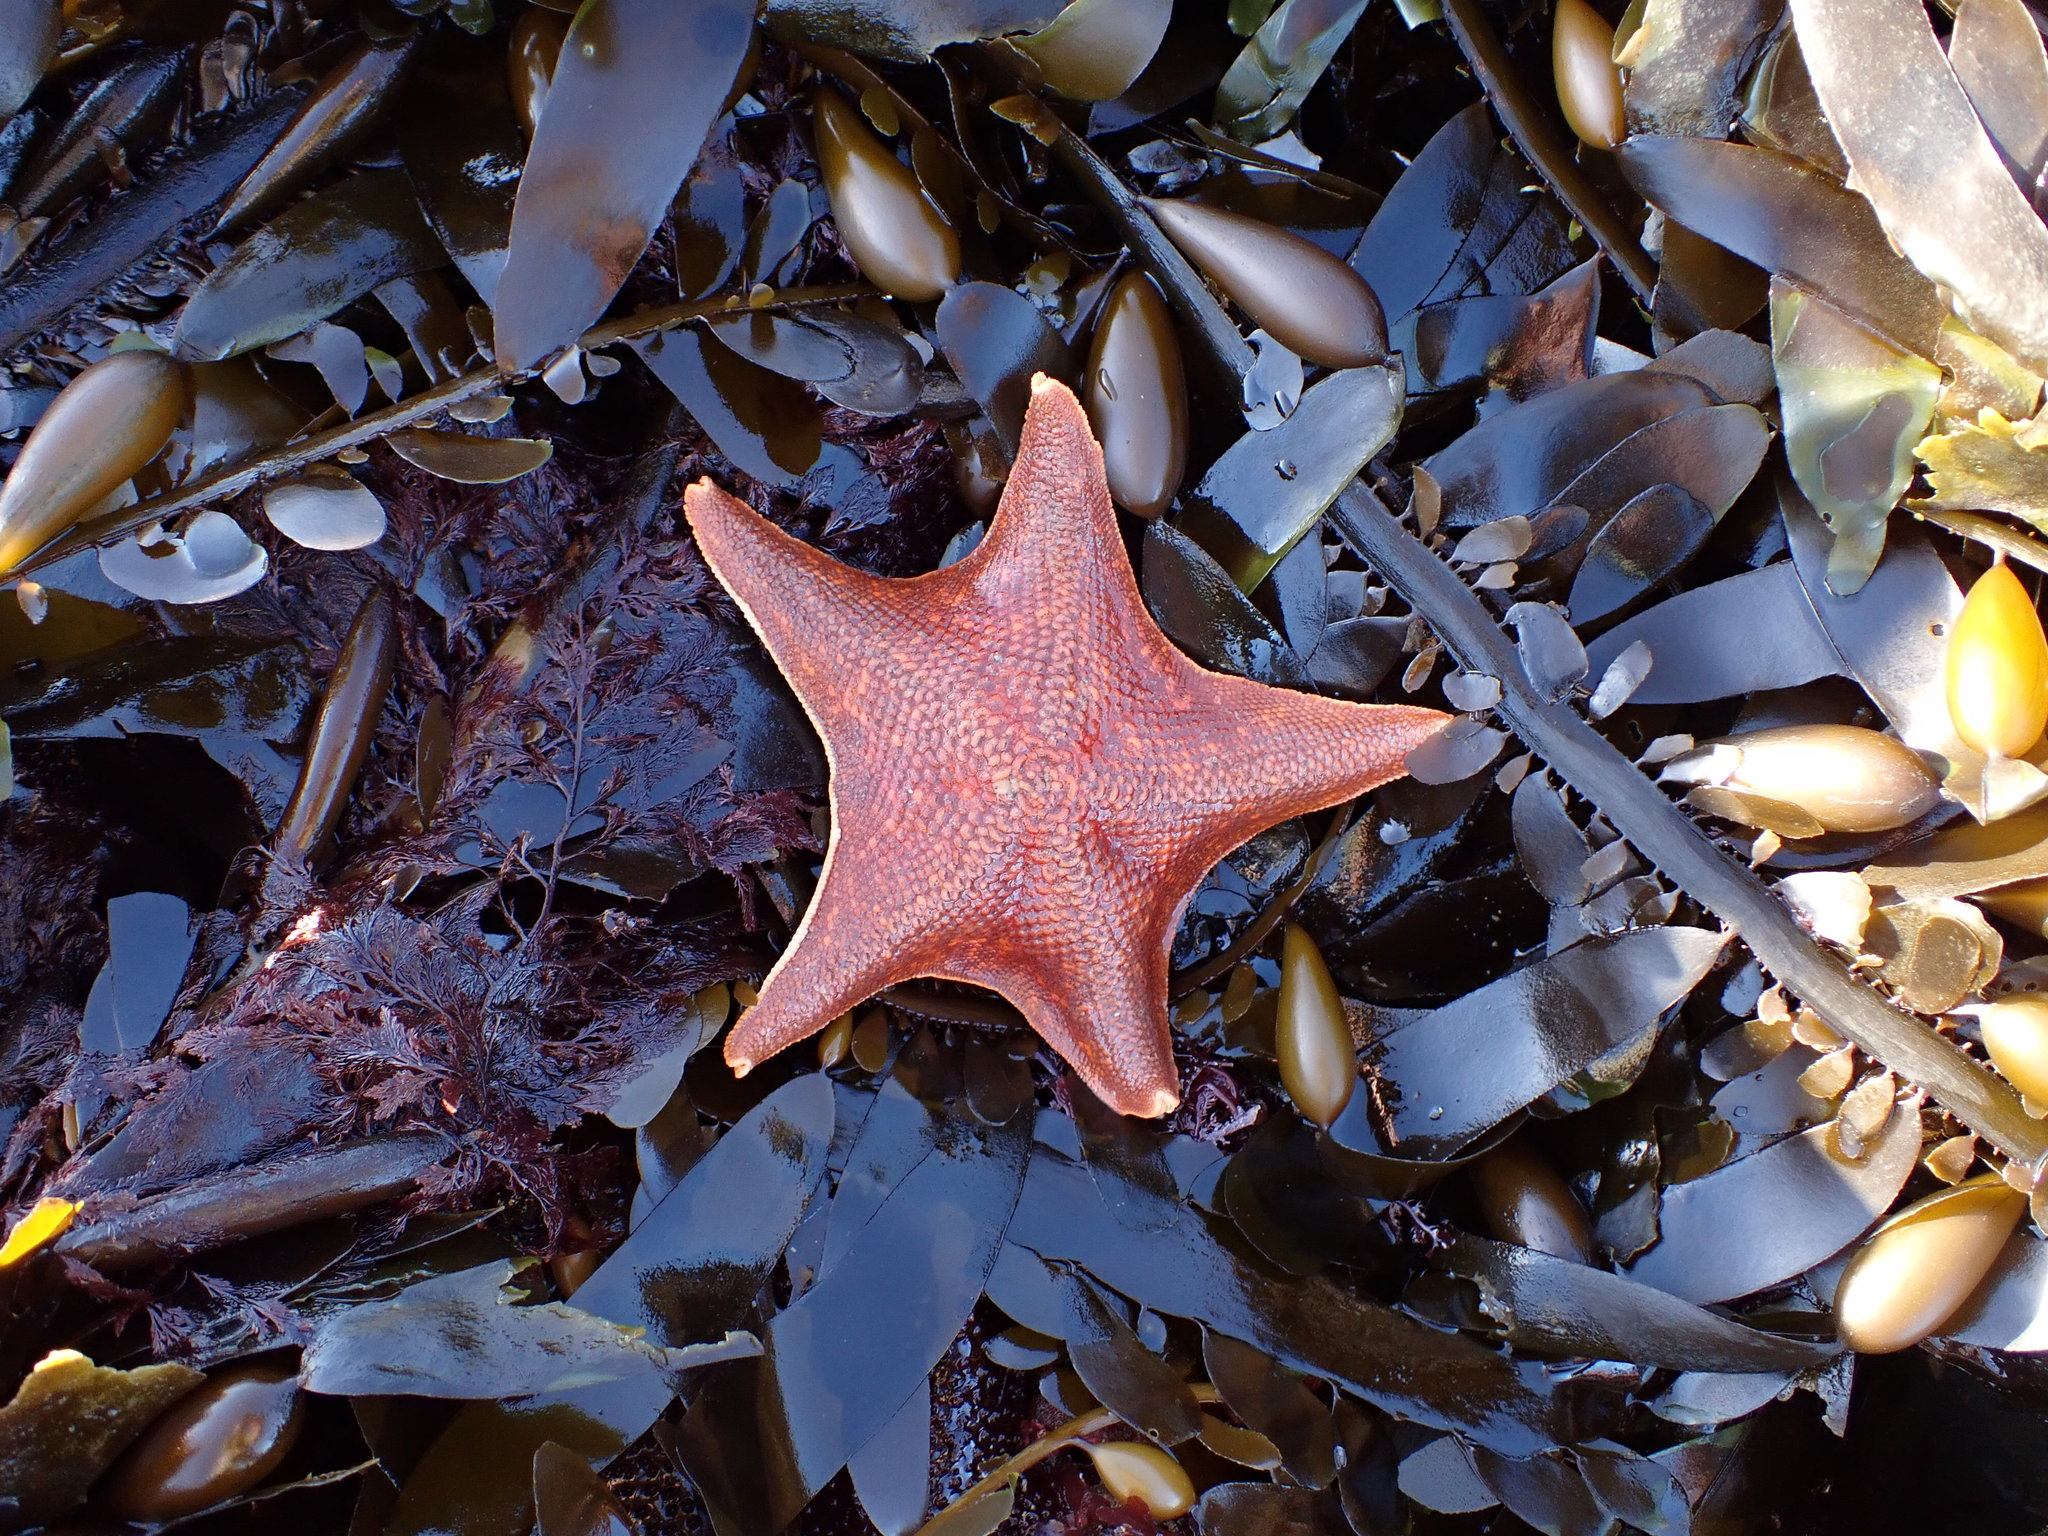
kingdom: Animalia
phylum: Echinodermata
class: Asteroidea
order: Valvatida
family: Asterinidae
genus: Patiria
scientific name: Patiria miniata
